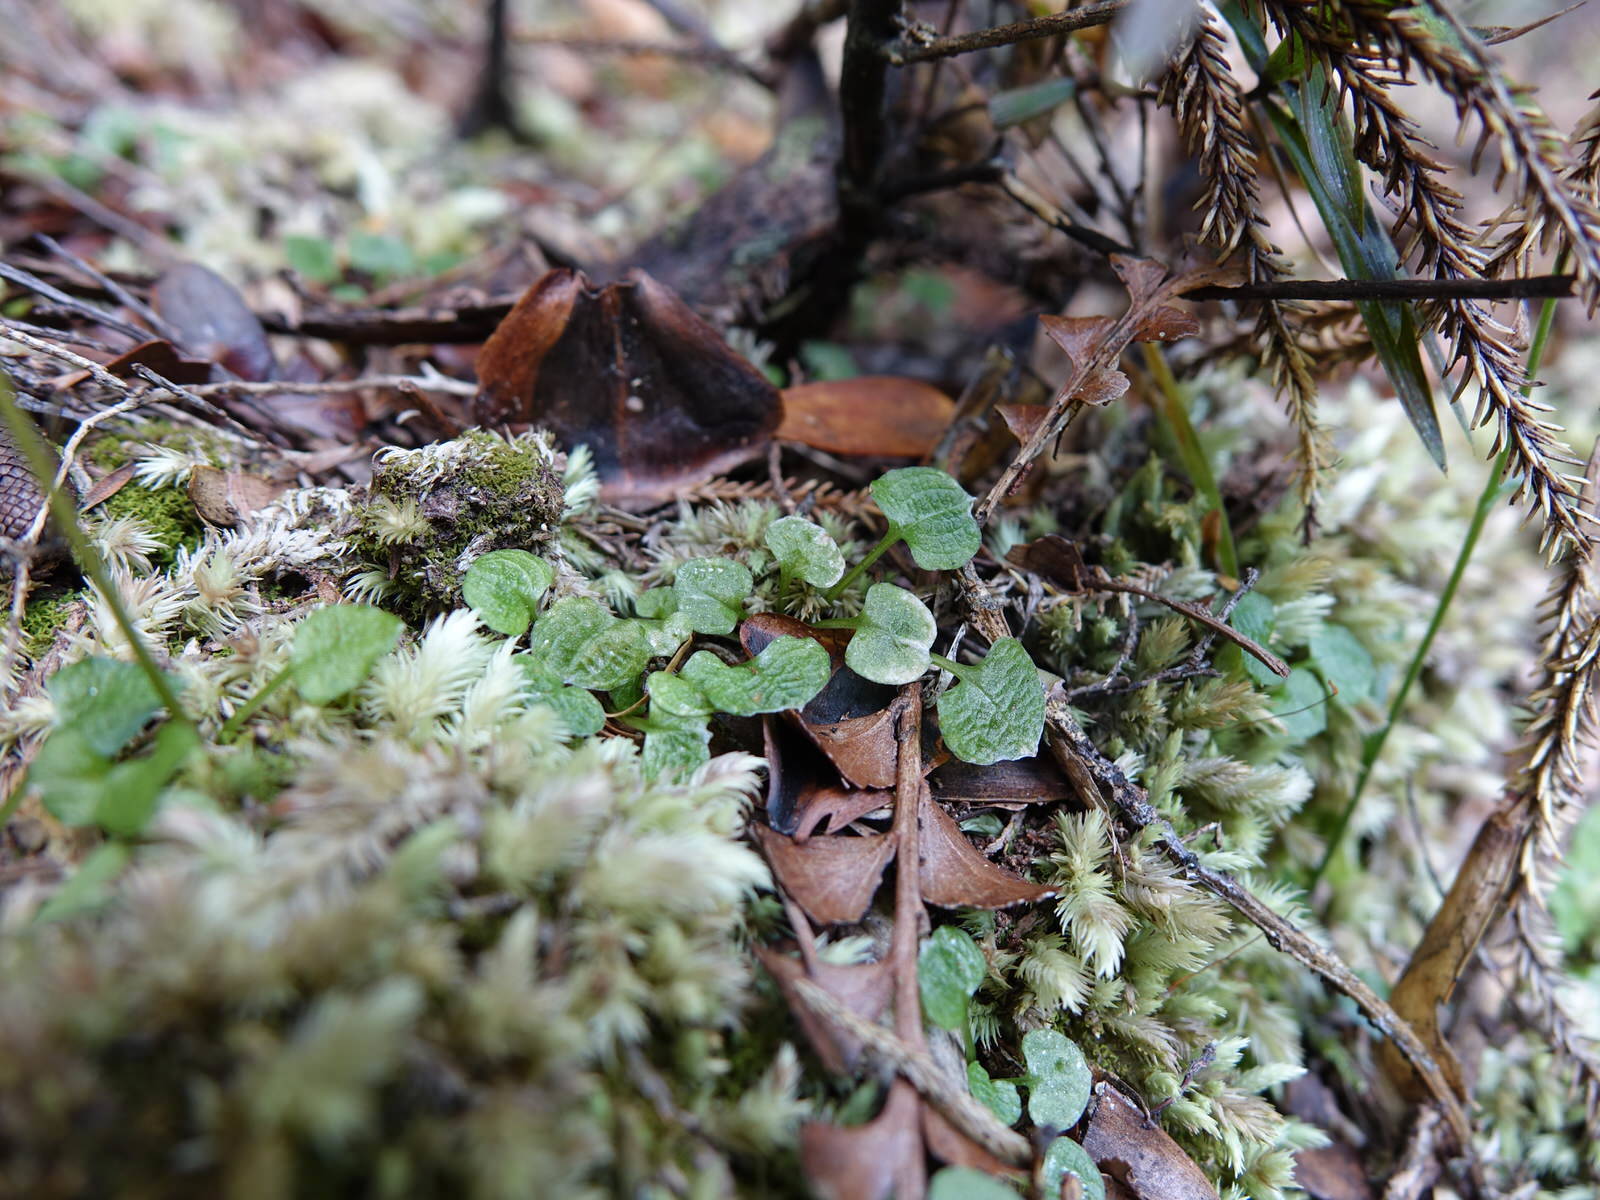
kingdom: Plantae
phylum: Tracheophyta
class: Liliopsida
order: Asparagales
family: Orchidaceae
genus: Pterostylis
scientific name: Pterostylis trullifolia
